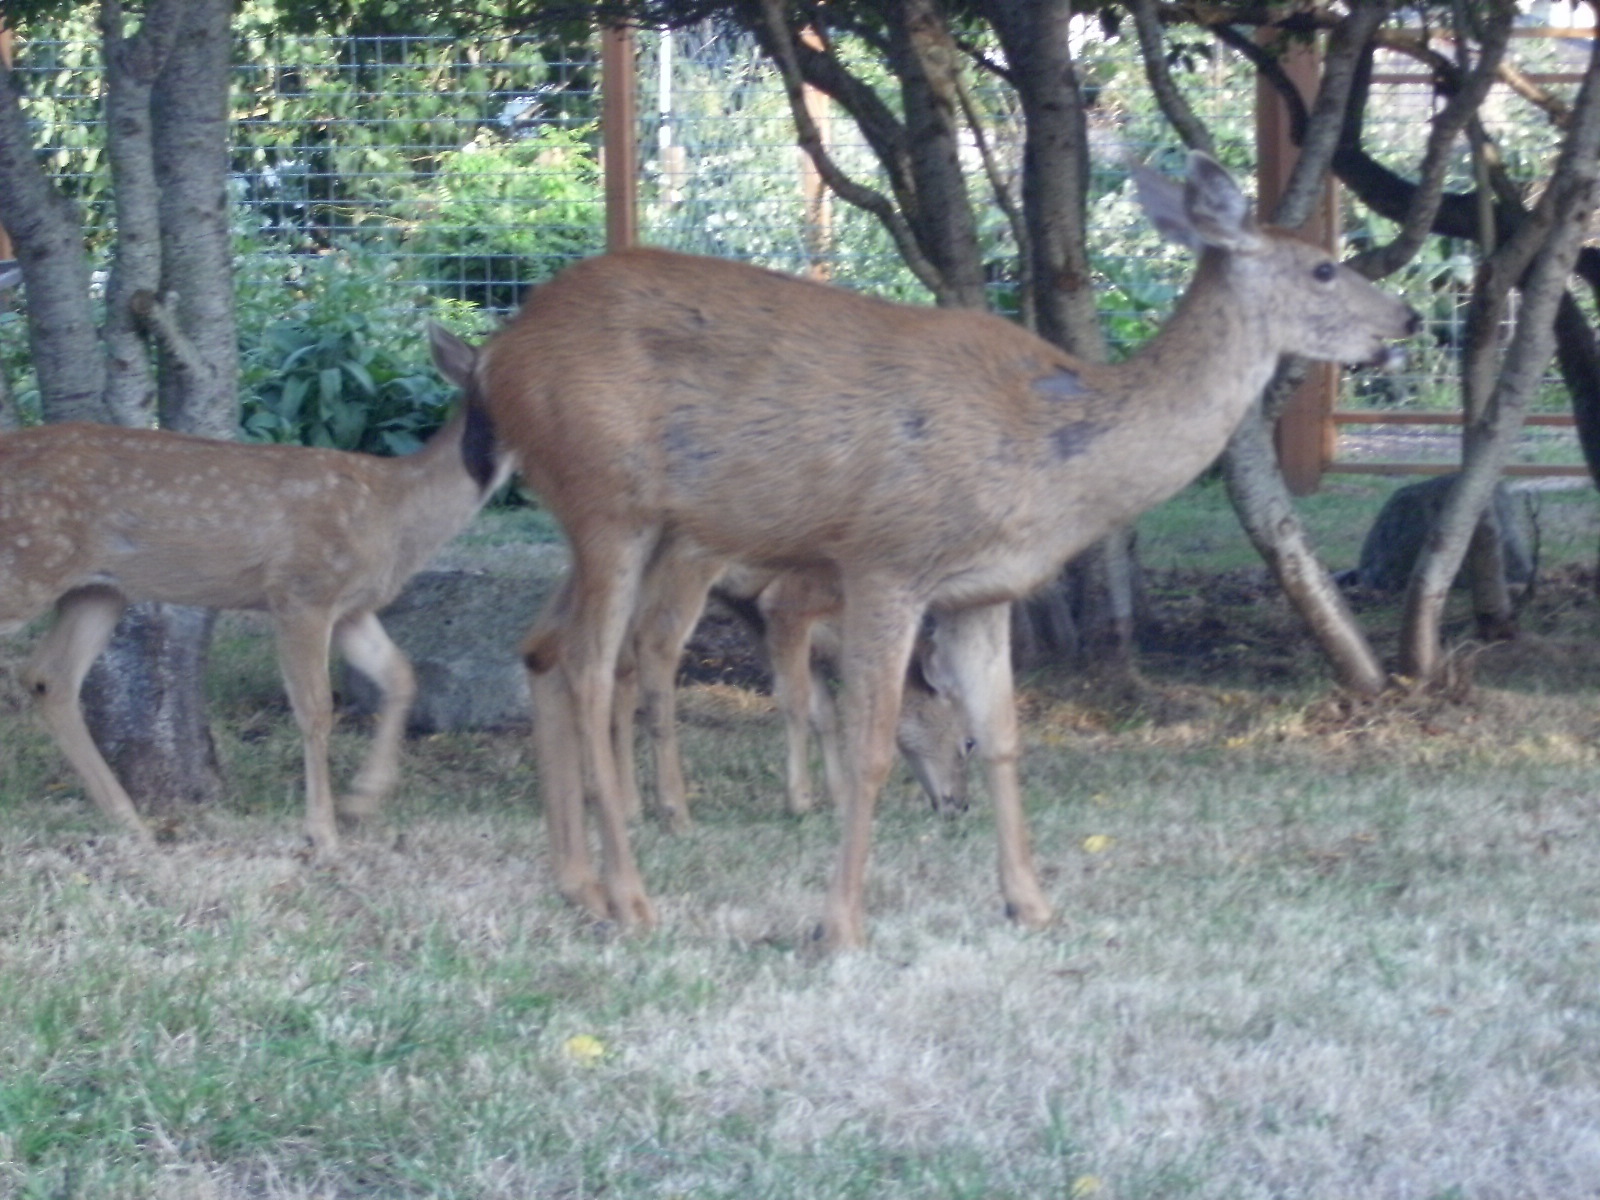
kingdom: Animalia
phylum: Chordata
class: Mammalia
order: Artiodactyla
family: Cervidae
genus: Odocoileus
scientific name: Odocoileus hemionus
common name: Mule deer
